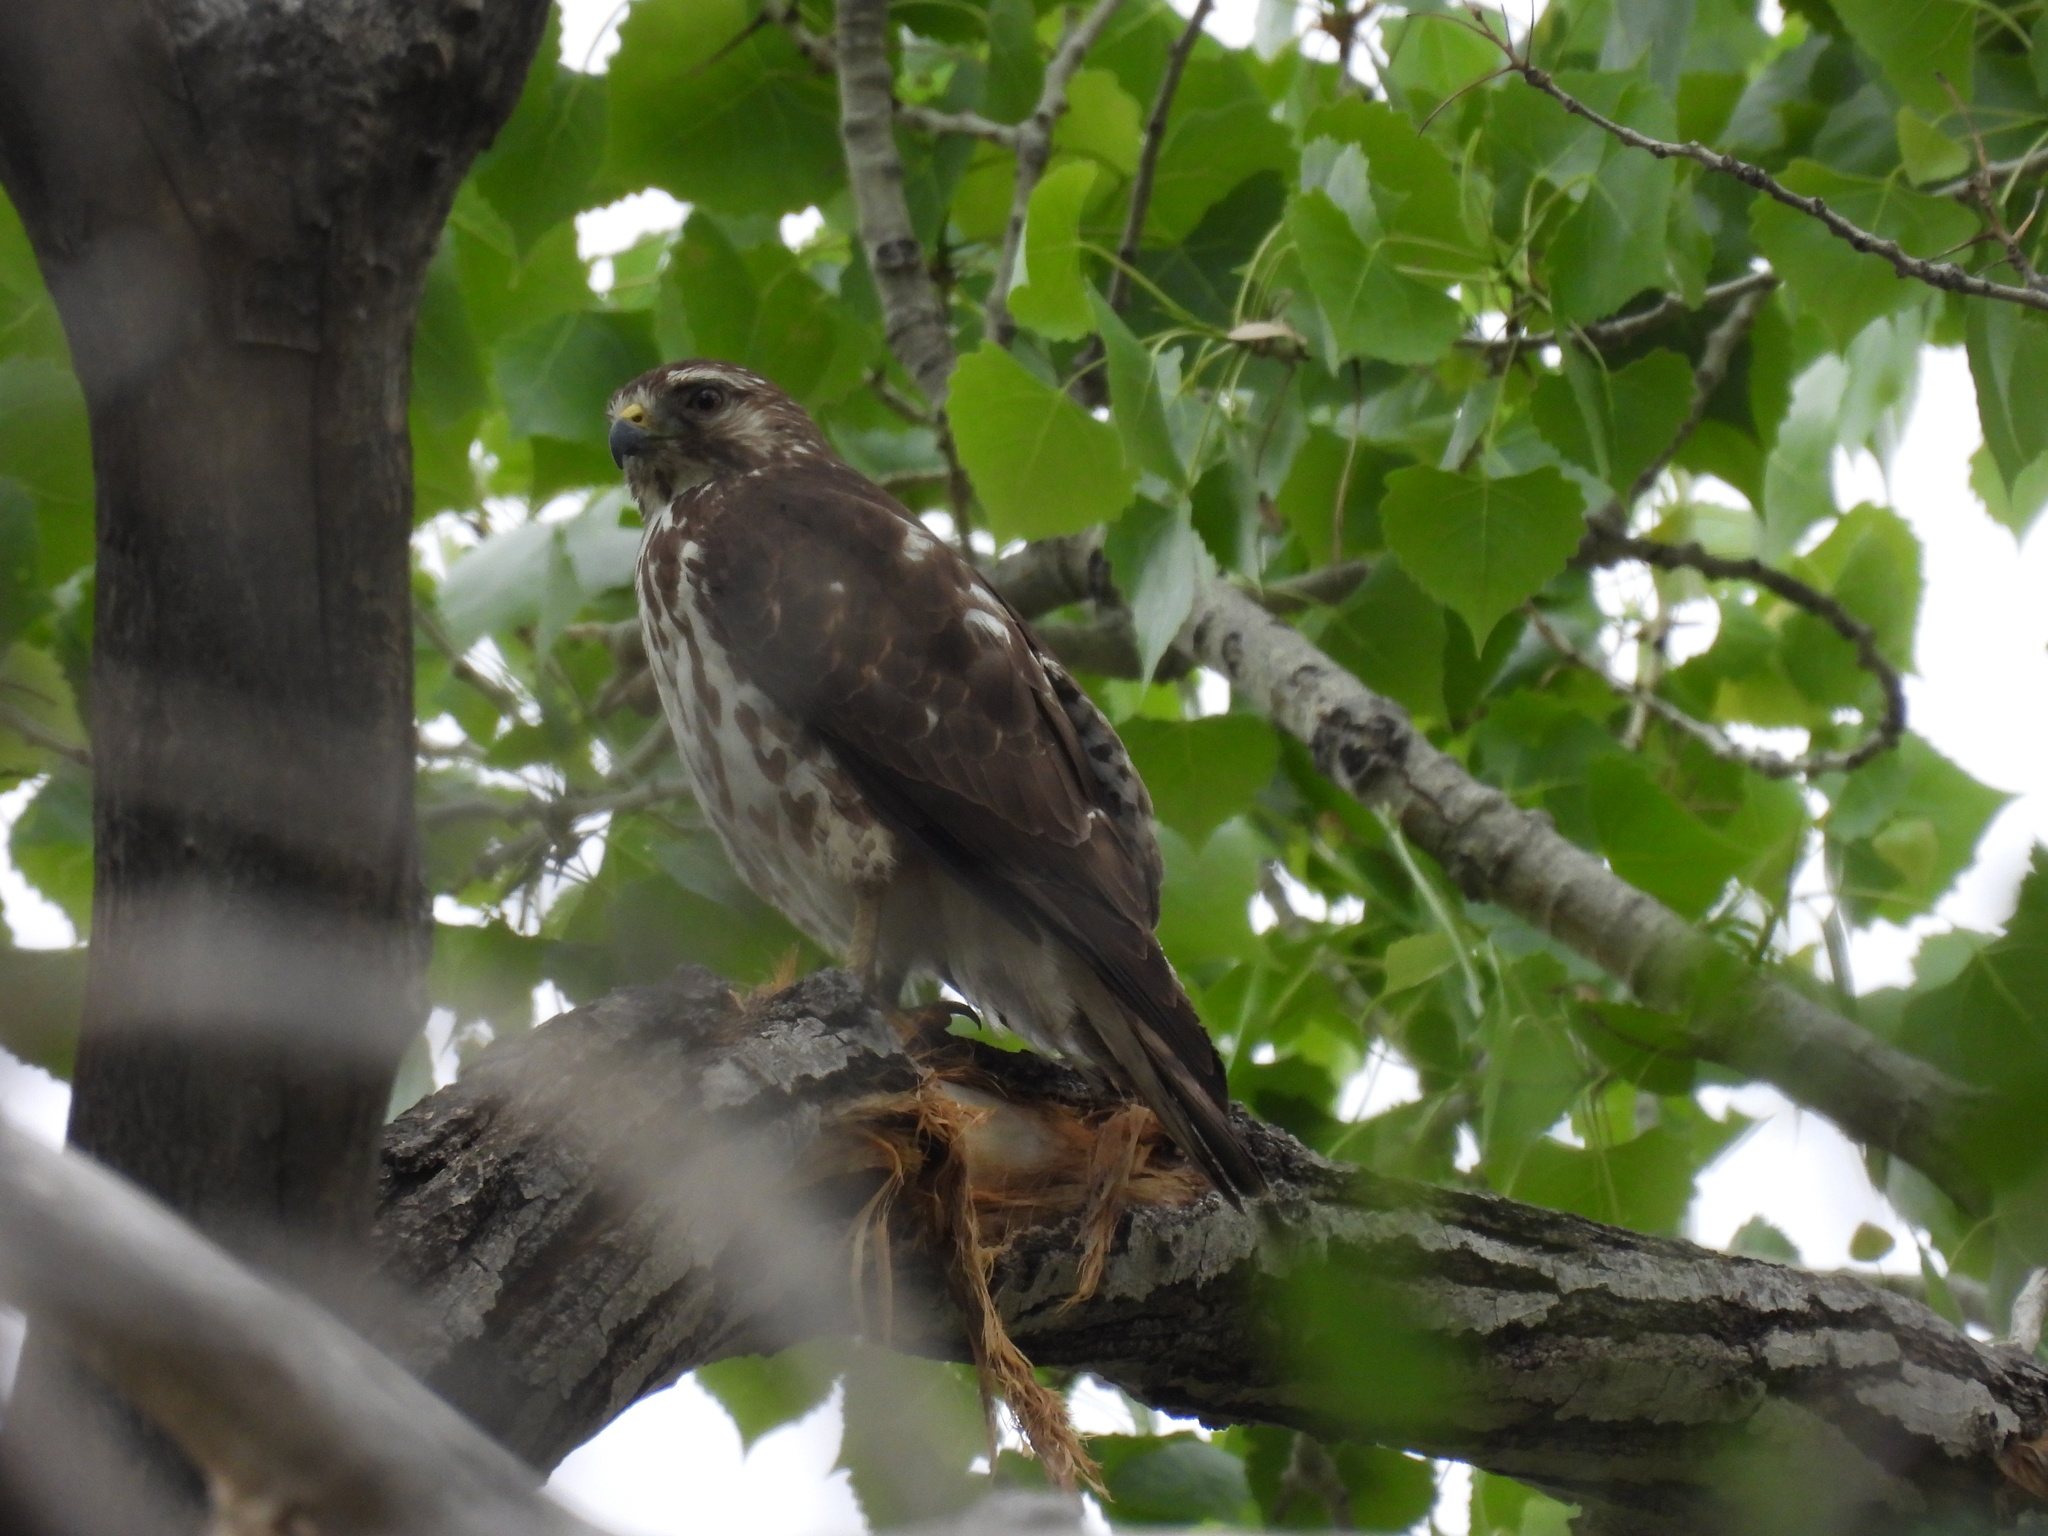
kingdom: Animalia
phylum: Chordata
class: Aves
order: Accipitriformes
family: Accipitridae
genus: Buteo
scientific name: Buteo platypterus
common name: Broad-winged hawk
